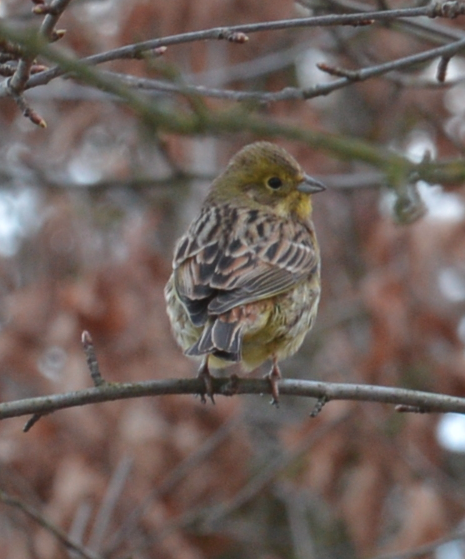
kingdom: Animalia
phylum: Chordata
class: Aves
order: Passeriformes
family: Emberizidae
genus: Emberiza
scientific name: Emberiza citrinella
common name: Yellowhammer
